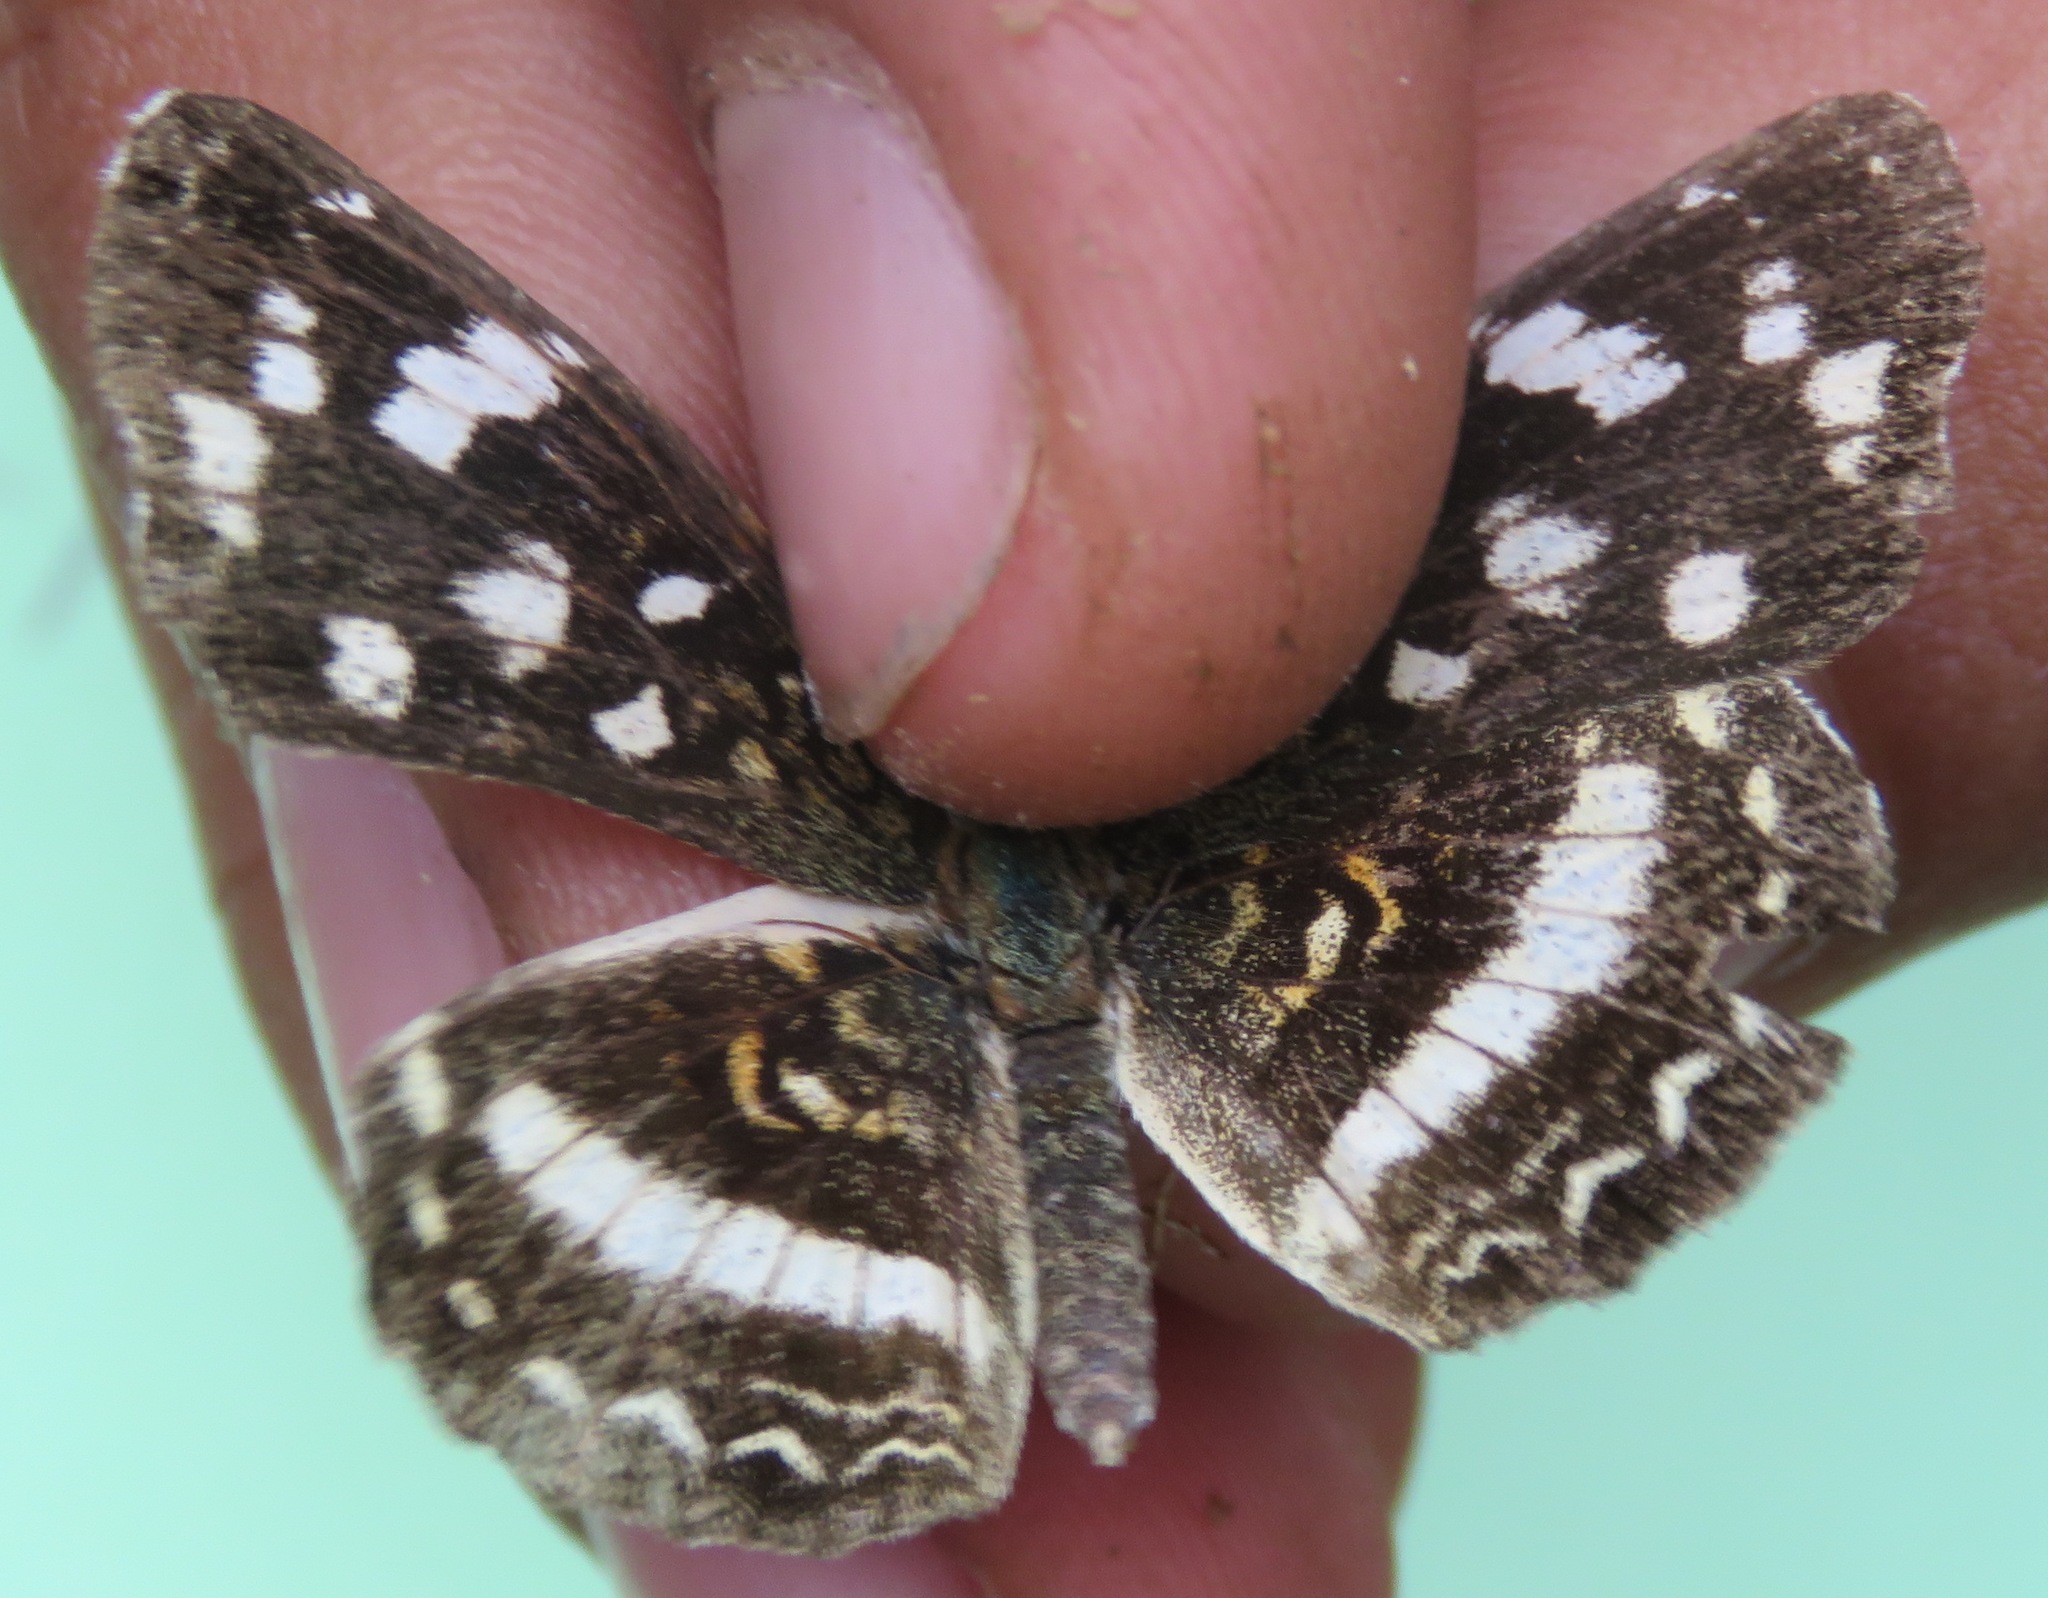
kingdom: Animalia
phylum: Arthropoda
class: Insecta
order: Lepidoptera
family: Nymphalidae
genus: Anthanassa
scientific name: Anthanassa tulcis
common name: Pale-banded crescent
